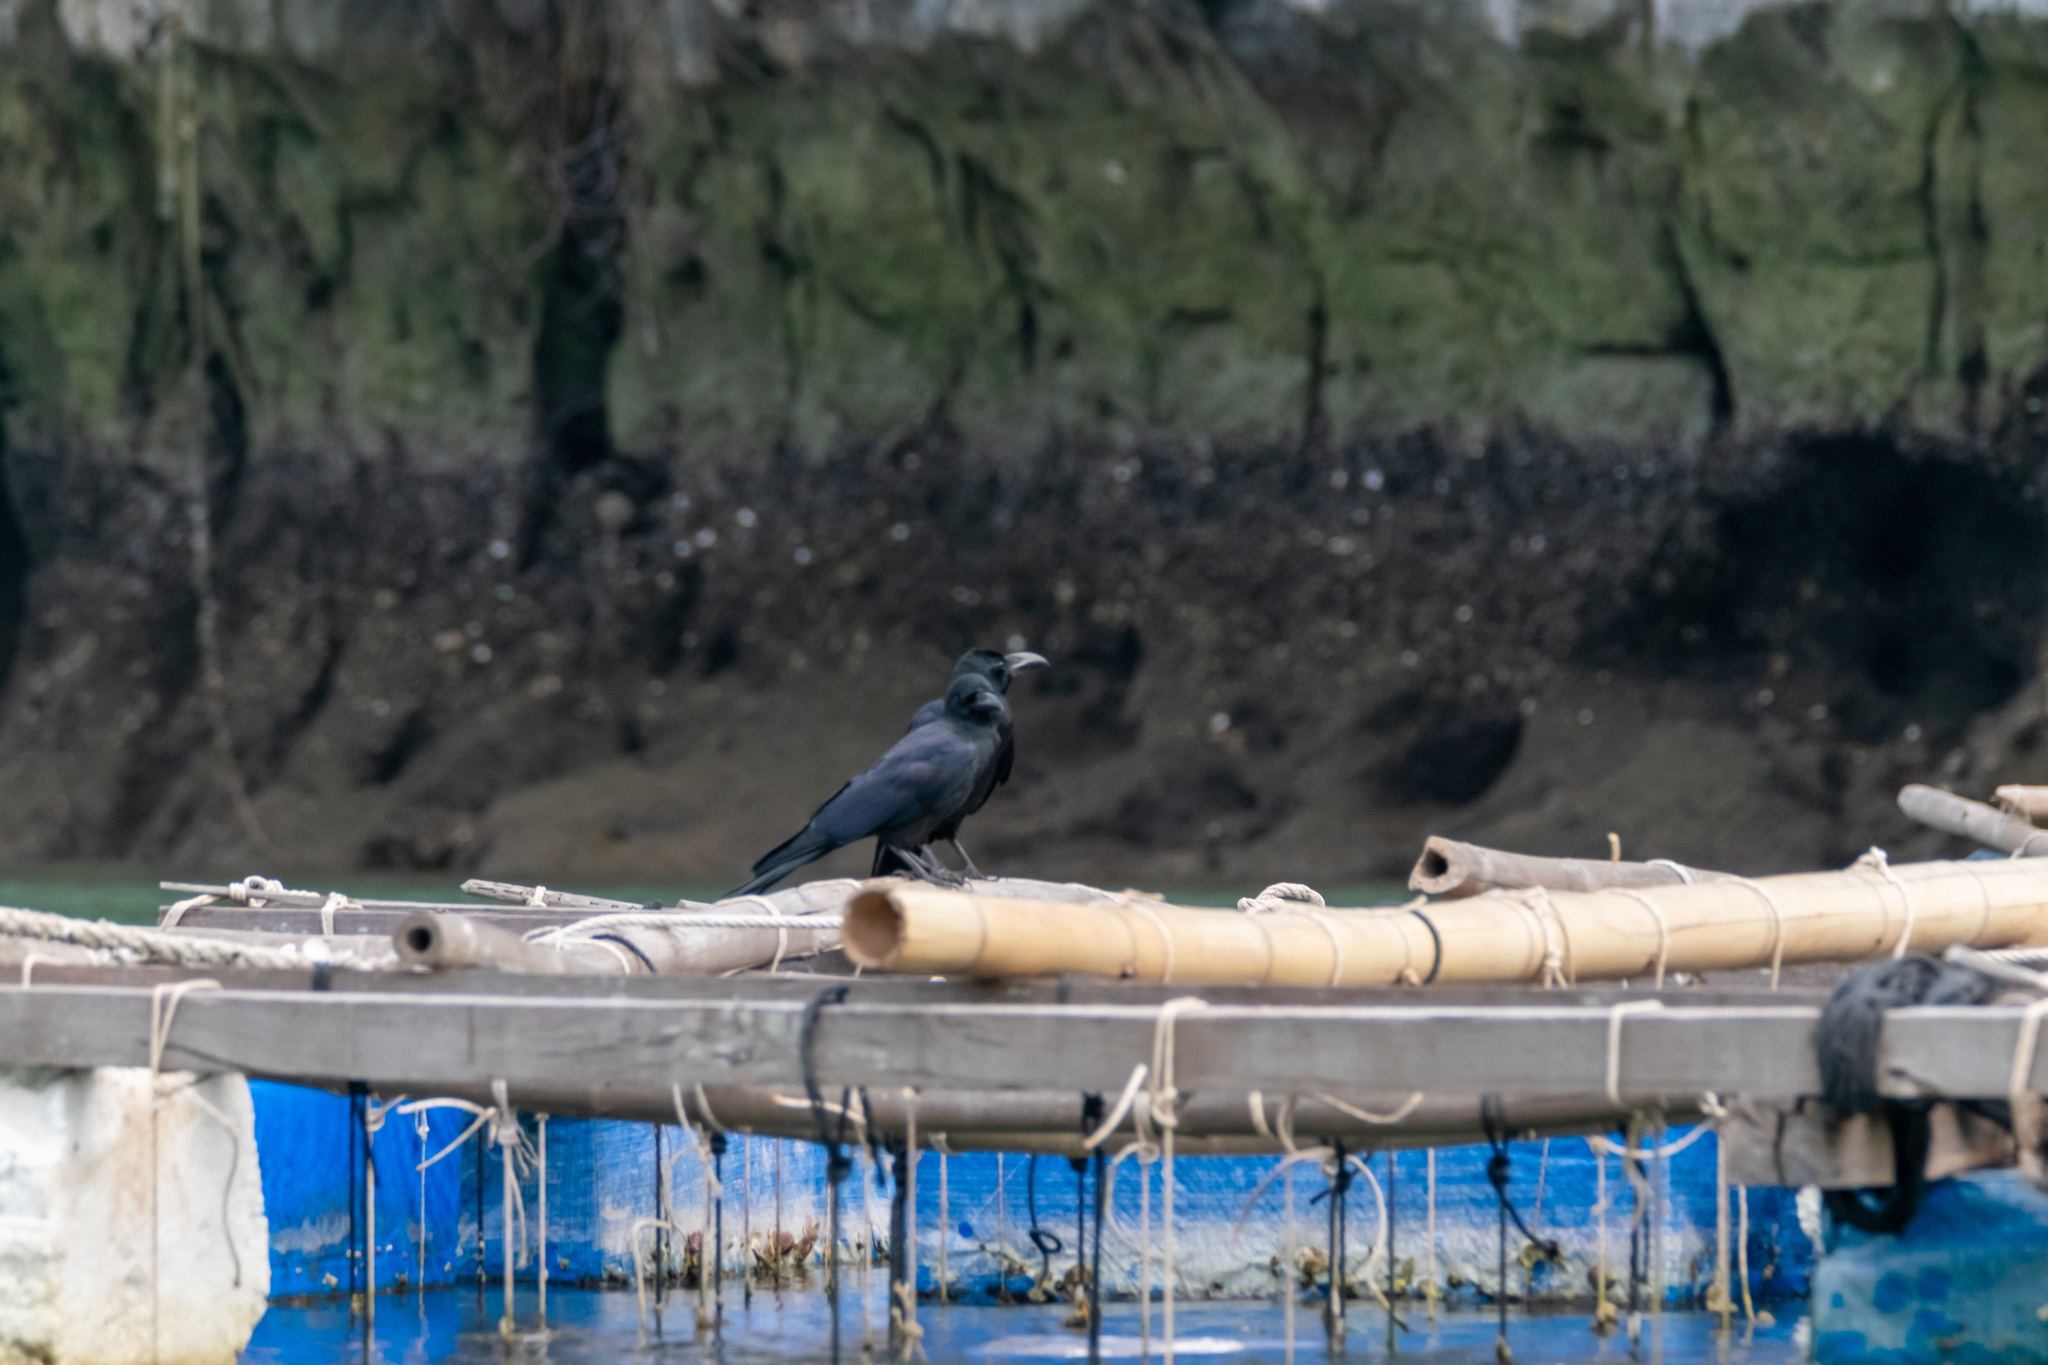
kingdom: Animalia
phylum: Chordata
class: Aves
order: Passeriformes
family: Corvidae
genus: Corvus
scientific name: Corvus macrorhynchos
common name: Large-billed crow
